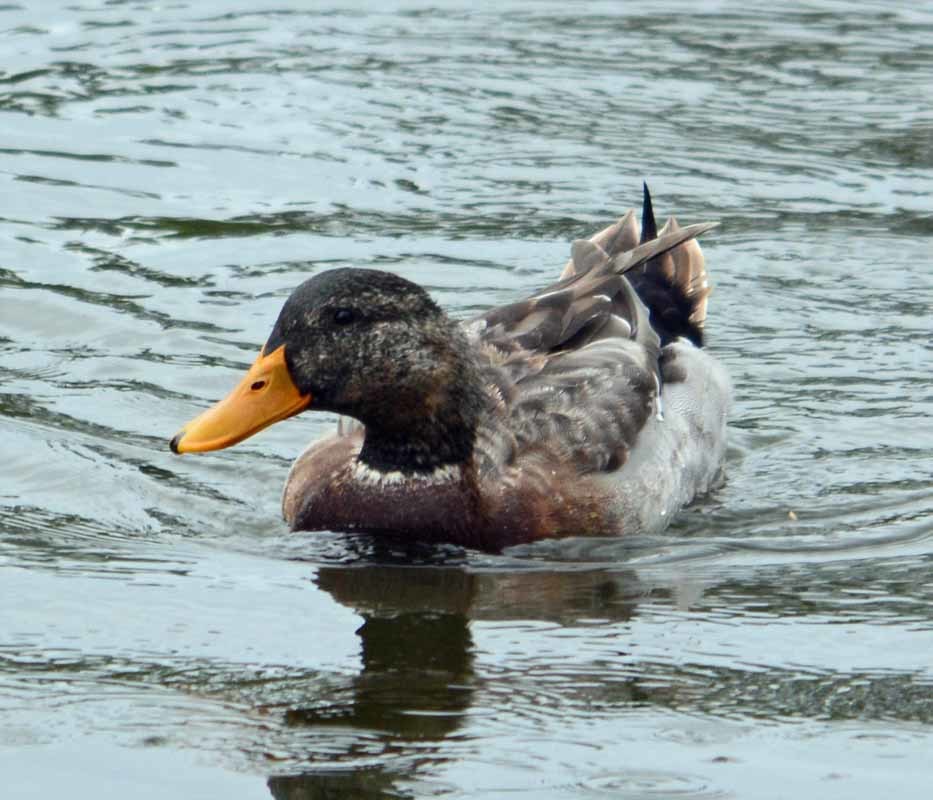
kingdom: Animalia
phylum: Chordata
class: Aves
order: Anseriformes
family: Anatidae
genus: Anas
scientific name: Anas platyrhynchos
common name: Mallard
